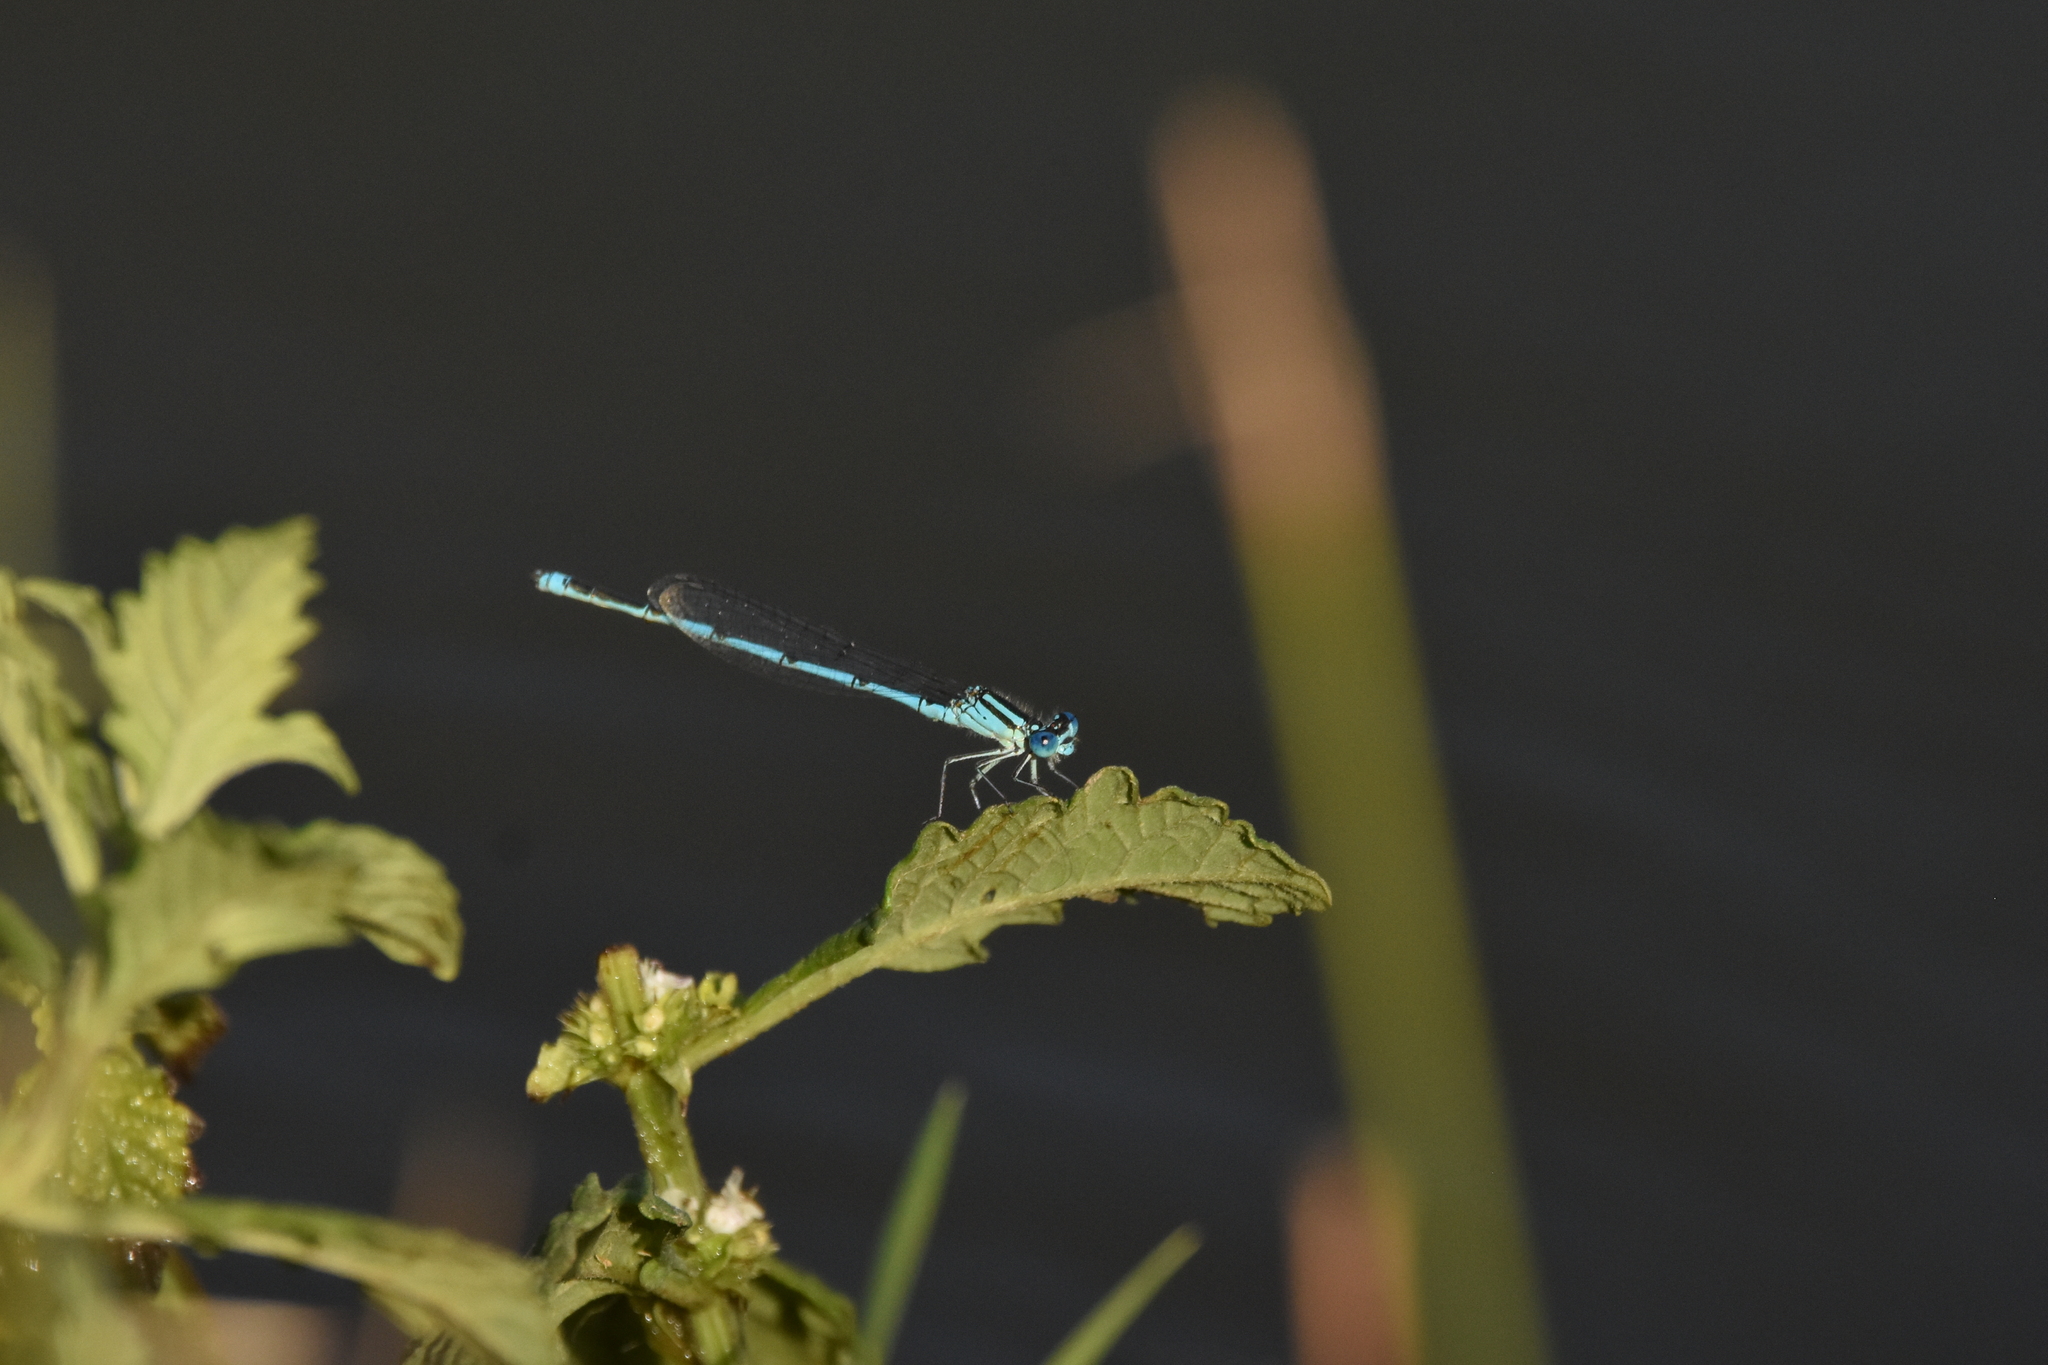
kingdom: Animalia
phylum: Arthropoda
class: Insecta
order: Odonata
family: Coenagrionidae
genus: Erythromma
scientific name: Erythromma lindenii
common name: Blue-eye
